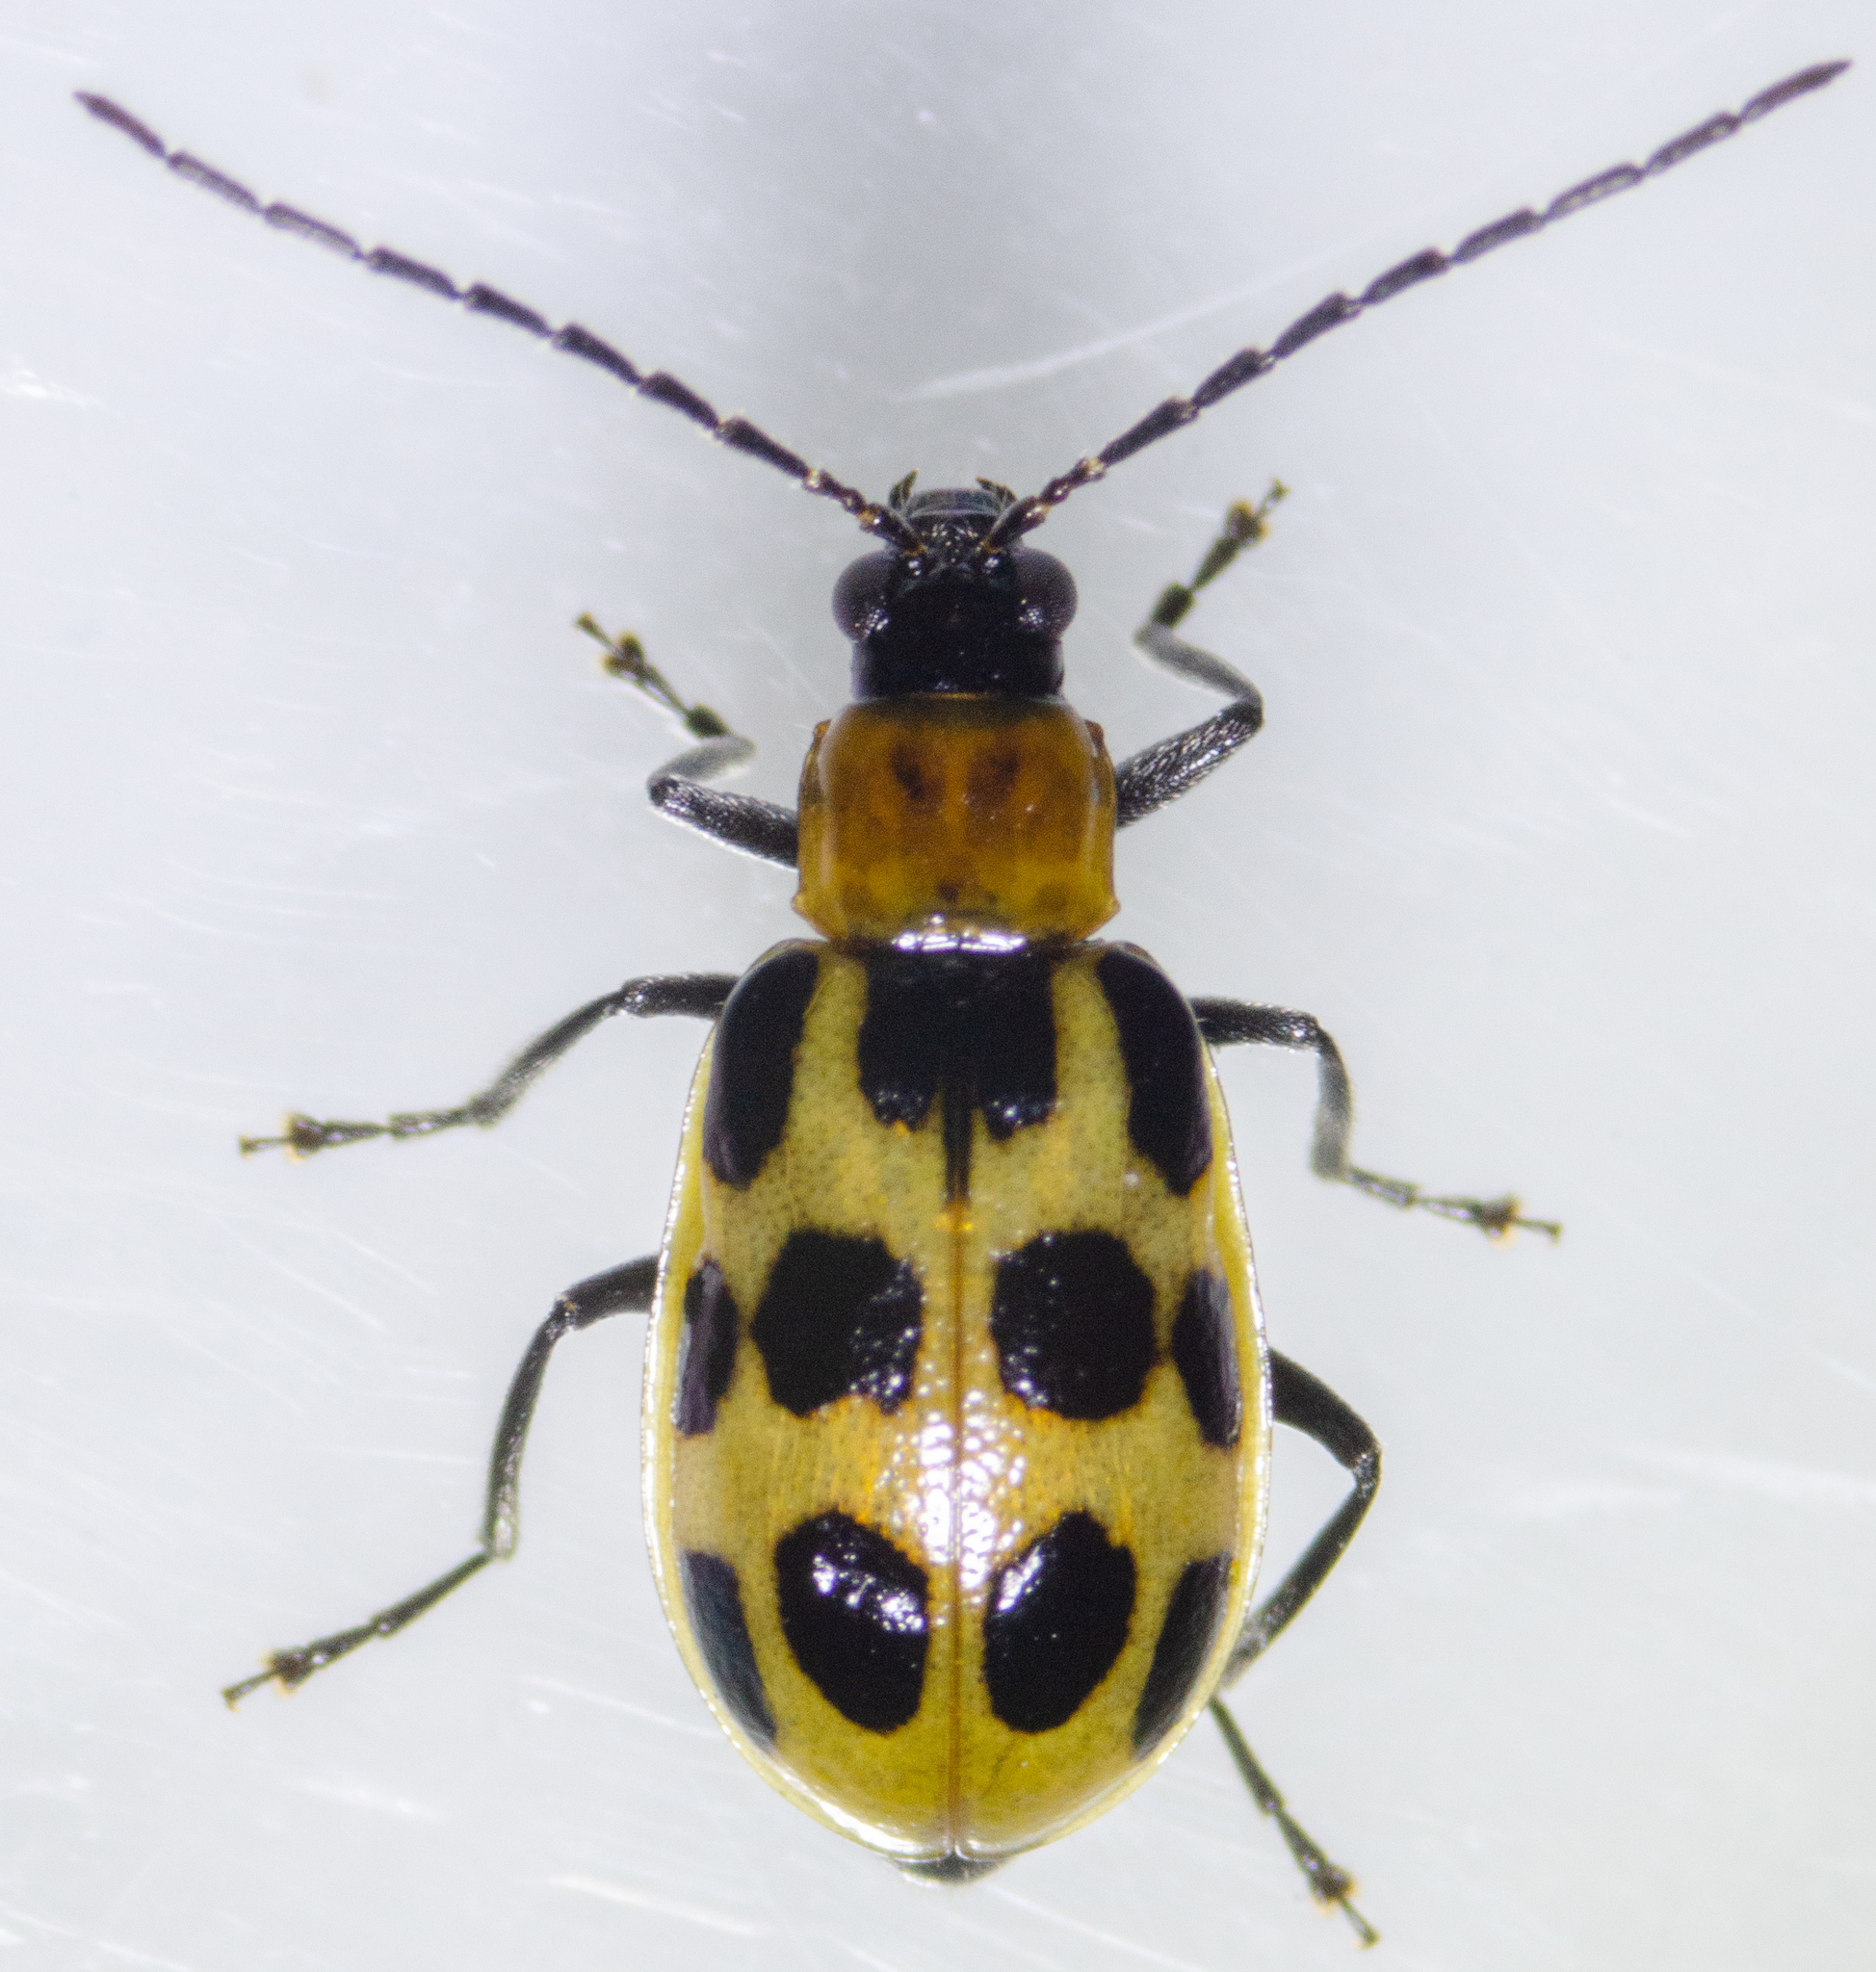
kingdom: Animalia
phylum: Arthropoda
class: Insecta
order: Coleoptera
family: Chrysomelidae
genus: Diabrotica
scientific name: Diabrotica undecimpunctata
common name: Spotted cucumber beetle
